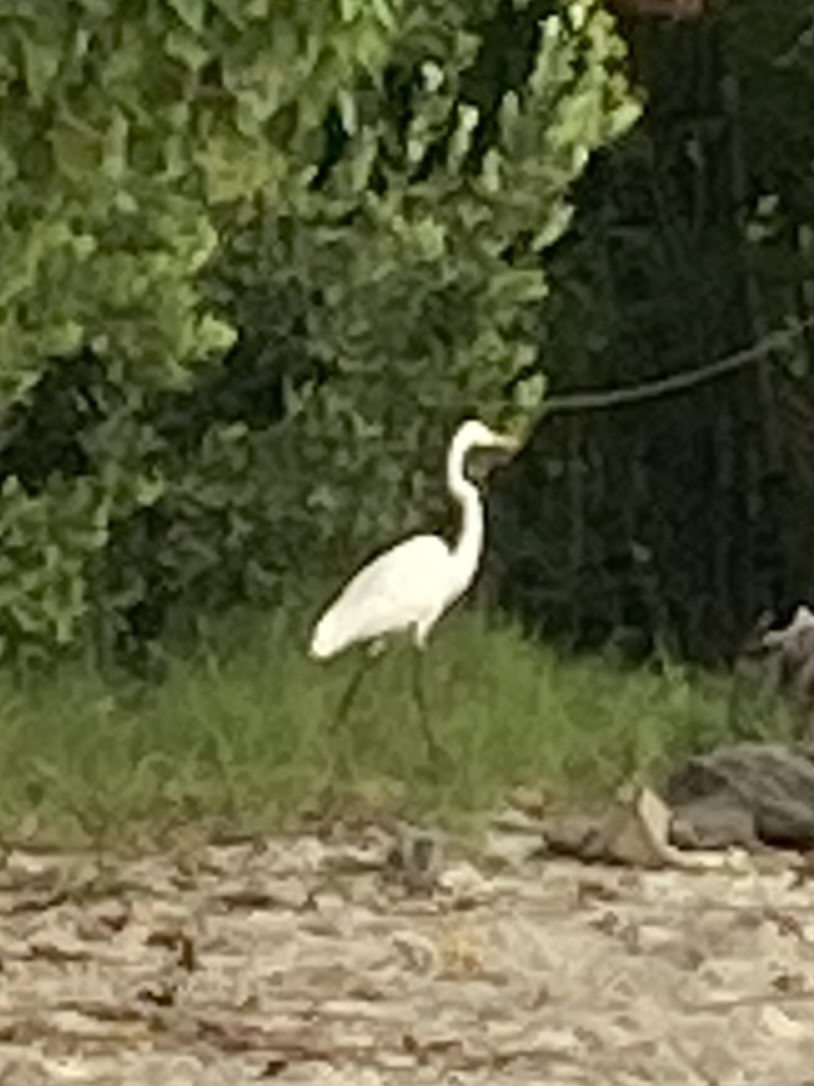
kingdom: Animalia
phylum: Chordata
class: Aves
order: Pelecaniformes
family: Ardeidae
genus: Ardea
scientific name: Ardea alba
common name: Great egret
